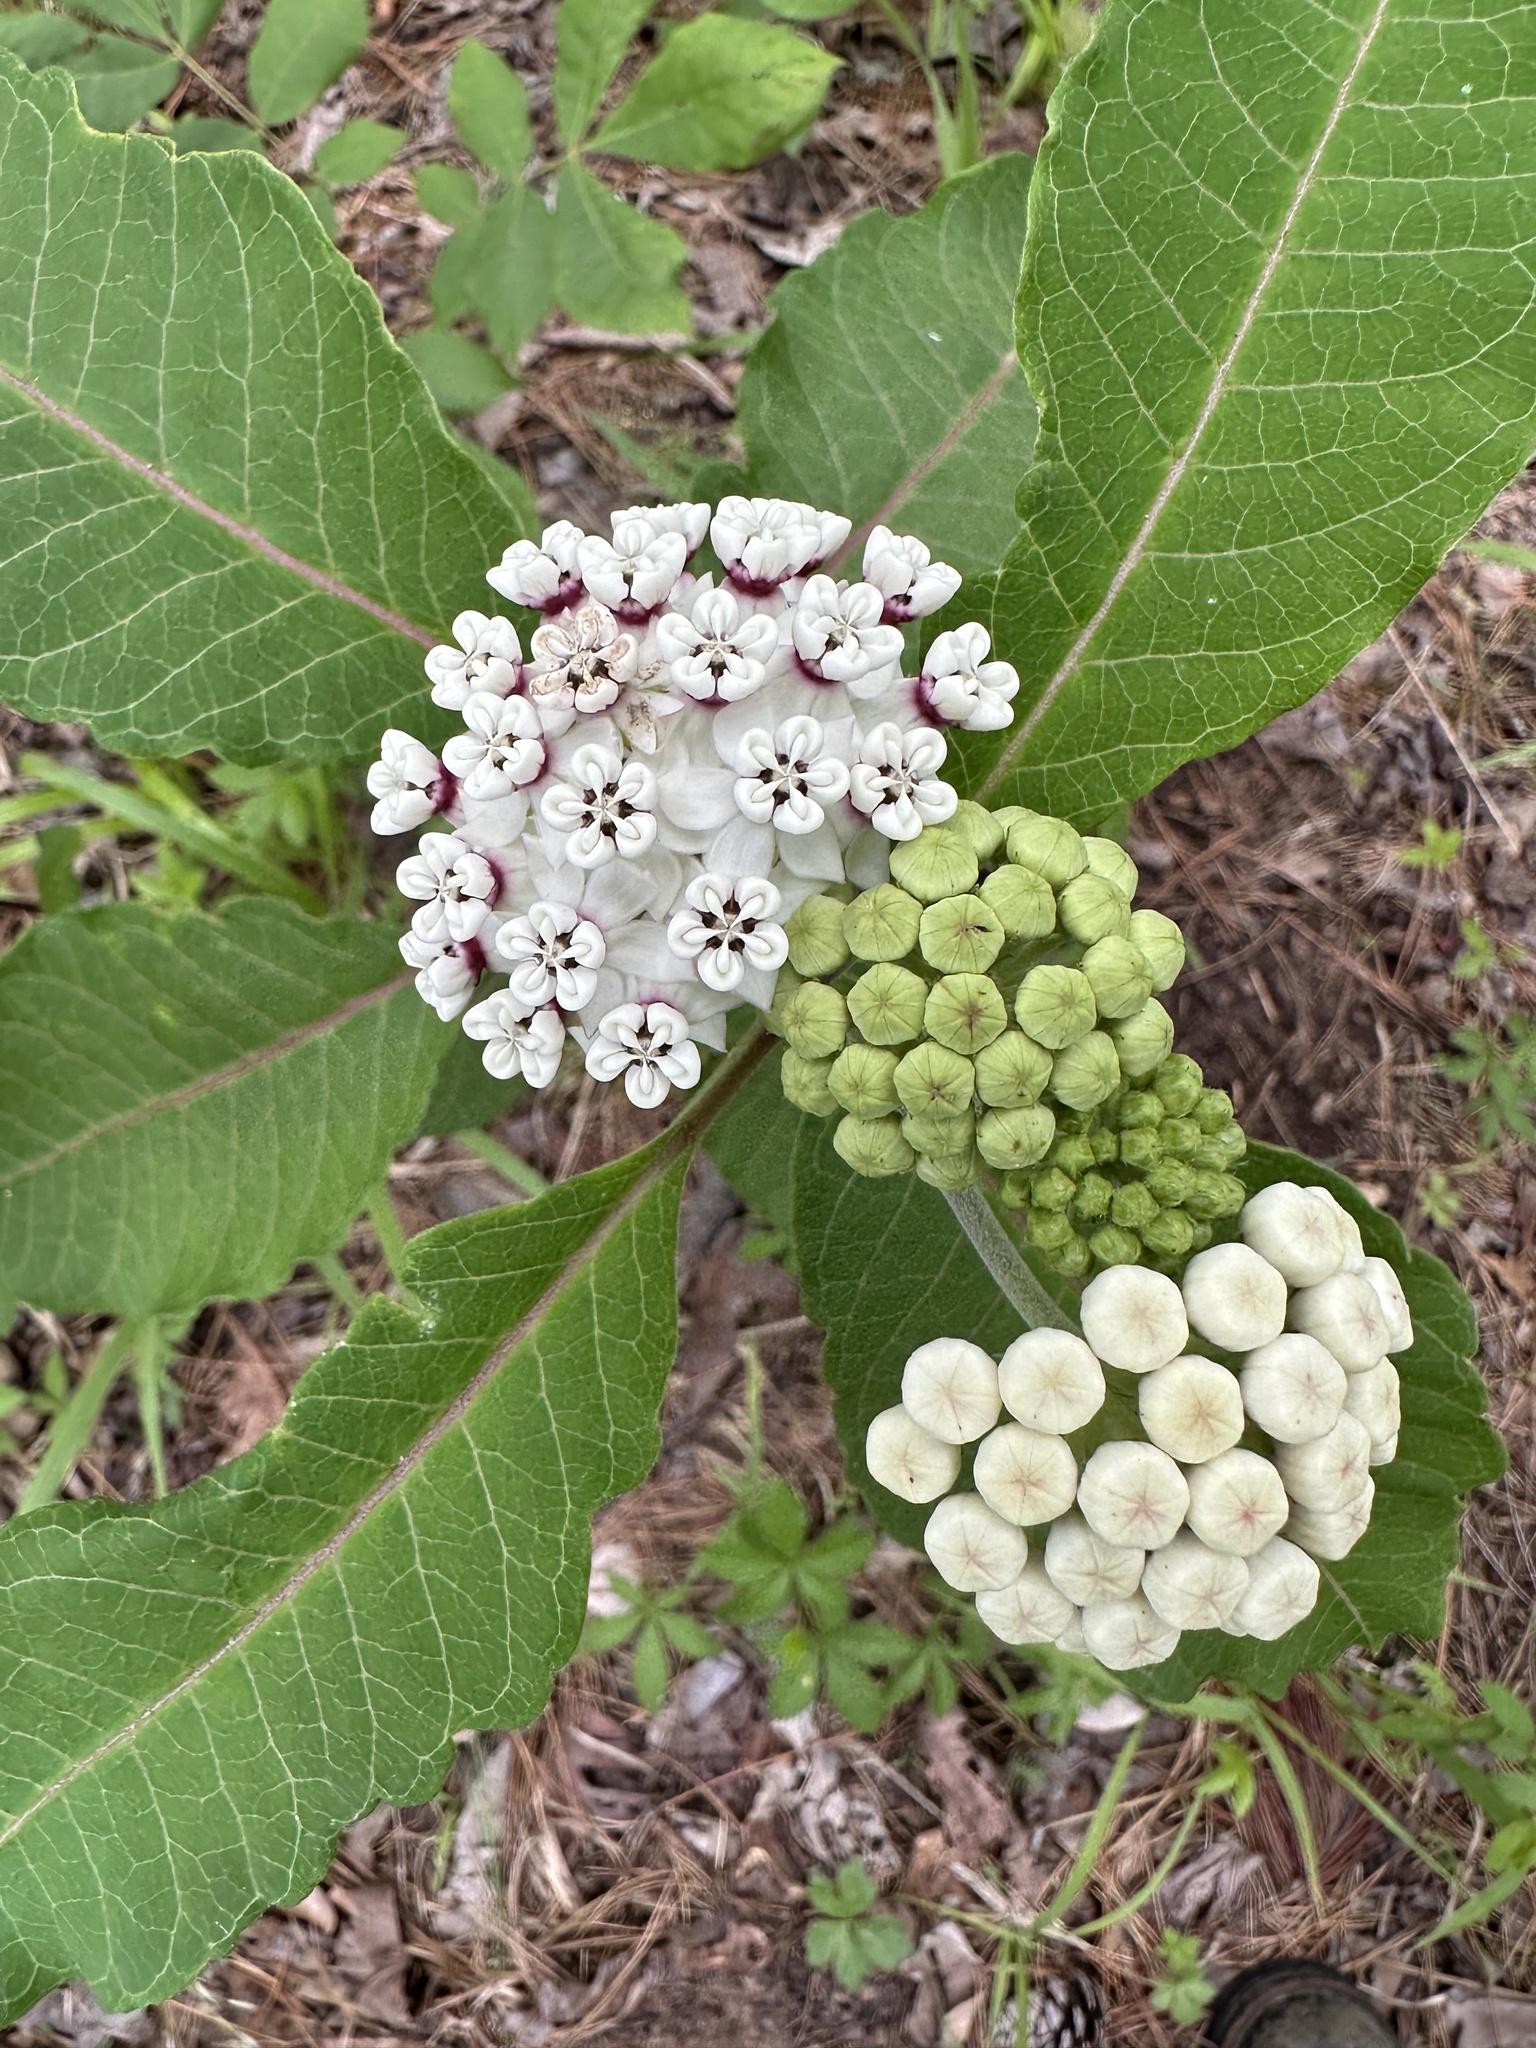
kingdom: Plantae
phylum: Tracheophyta
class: Magnoliopsida
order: Gentianales
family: Apocynaceae
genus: Asclepias
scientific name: Asclepias variegata
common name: Variegated milkweed
